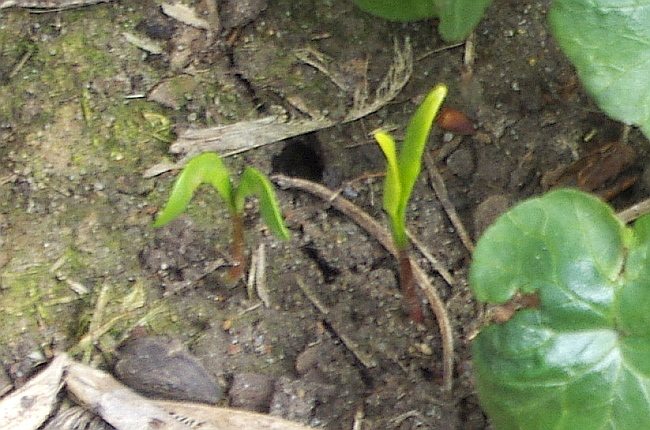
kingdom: Plantae
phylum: Tracheophyta
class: Magnoliopsida
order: Sapindales
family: Sapindaceae
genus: Acer
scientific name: Acer negundo
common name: Ashleaf maple
